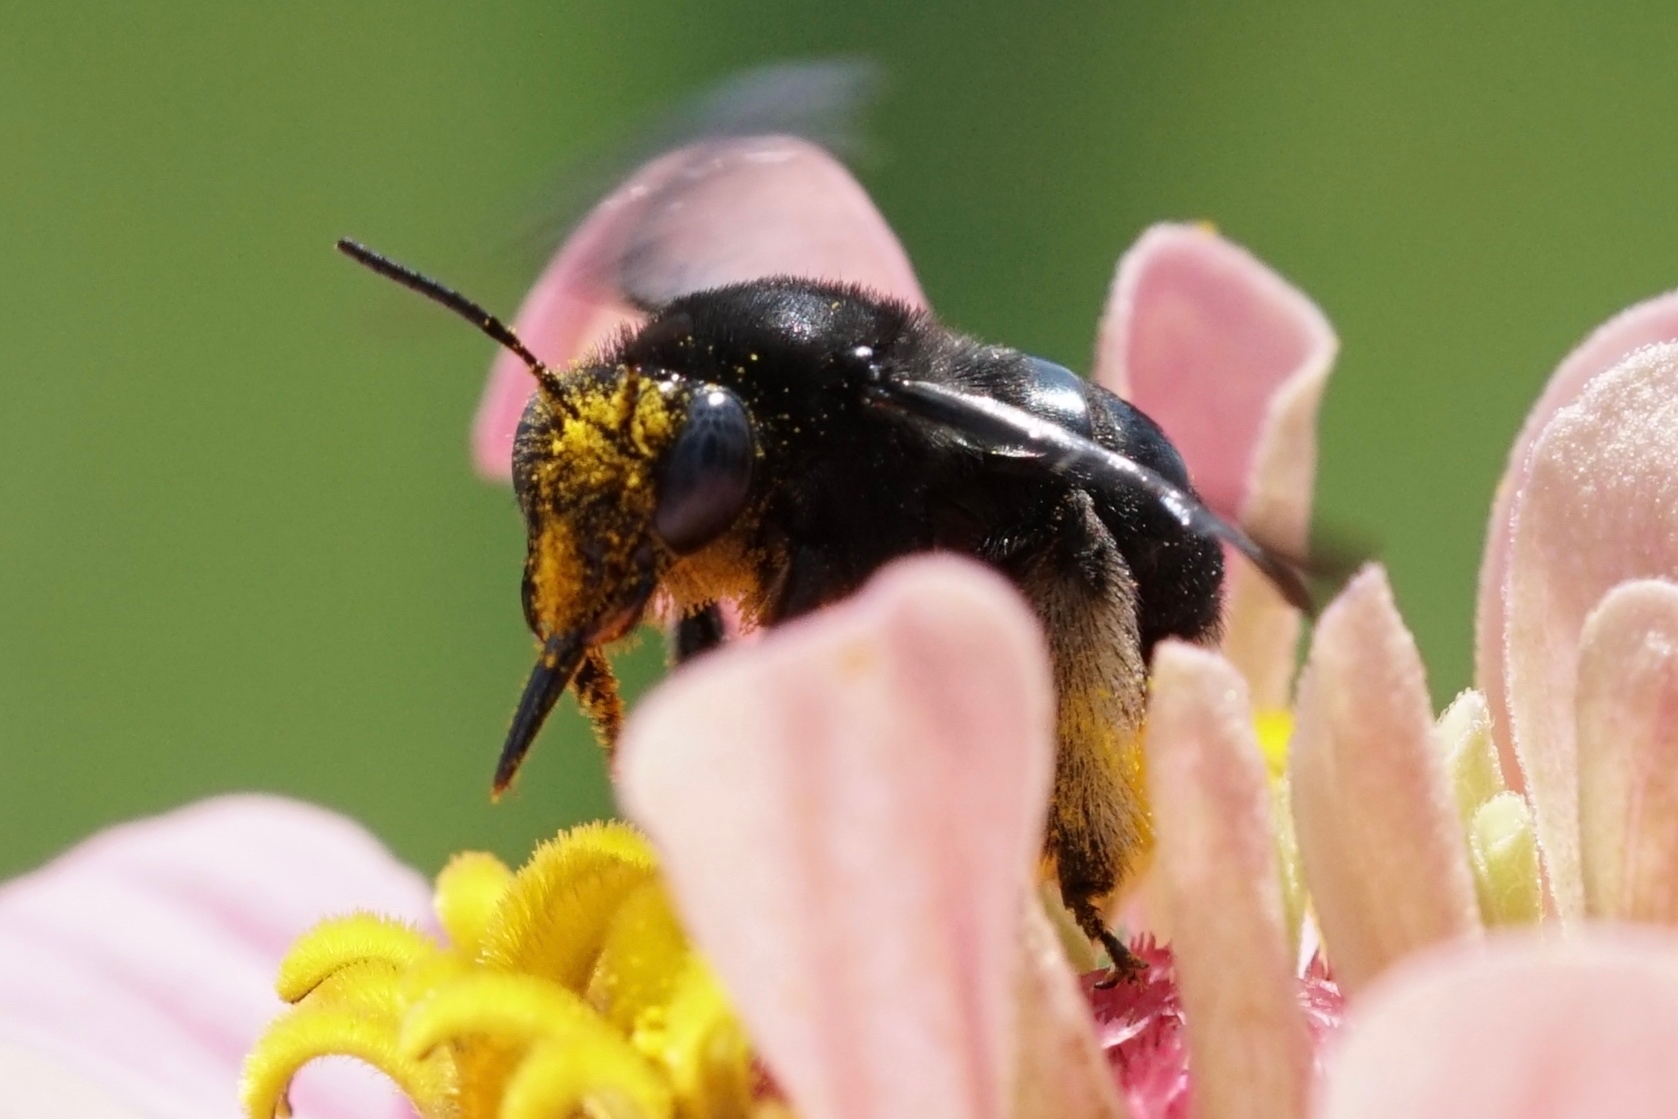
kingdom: Animalia
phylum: Arthropoda
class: Insecta
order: Hymenoptera
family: Apidae
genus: Melissodes
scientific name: Melissodes bimaculatus
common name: Two-spotted long-horned bee
